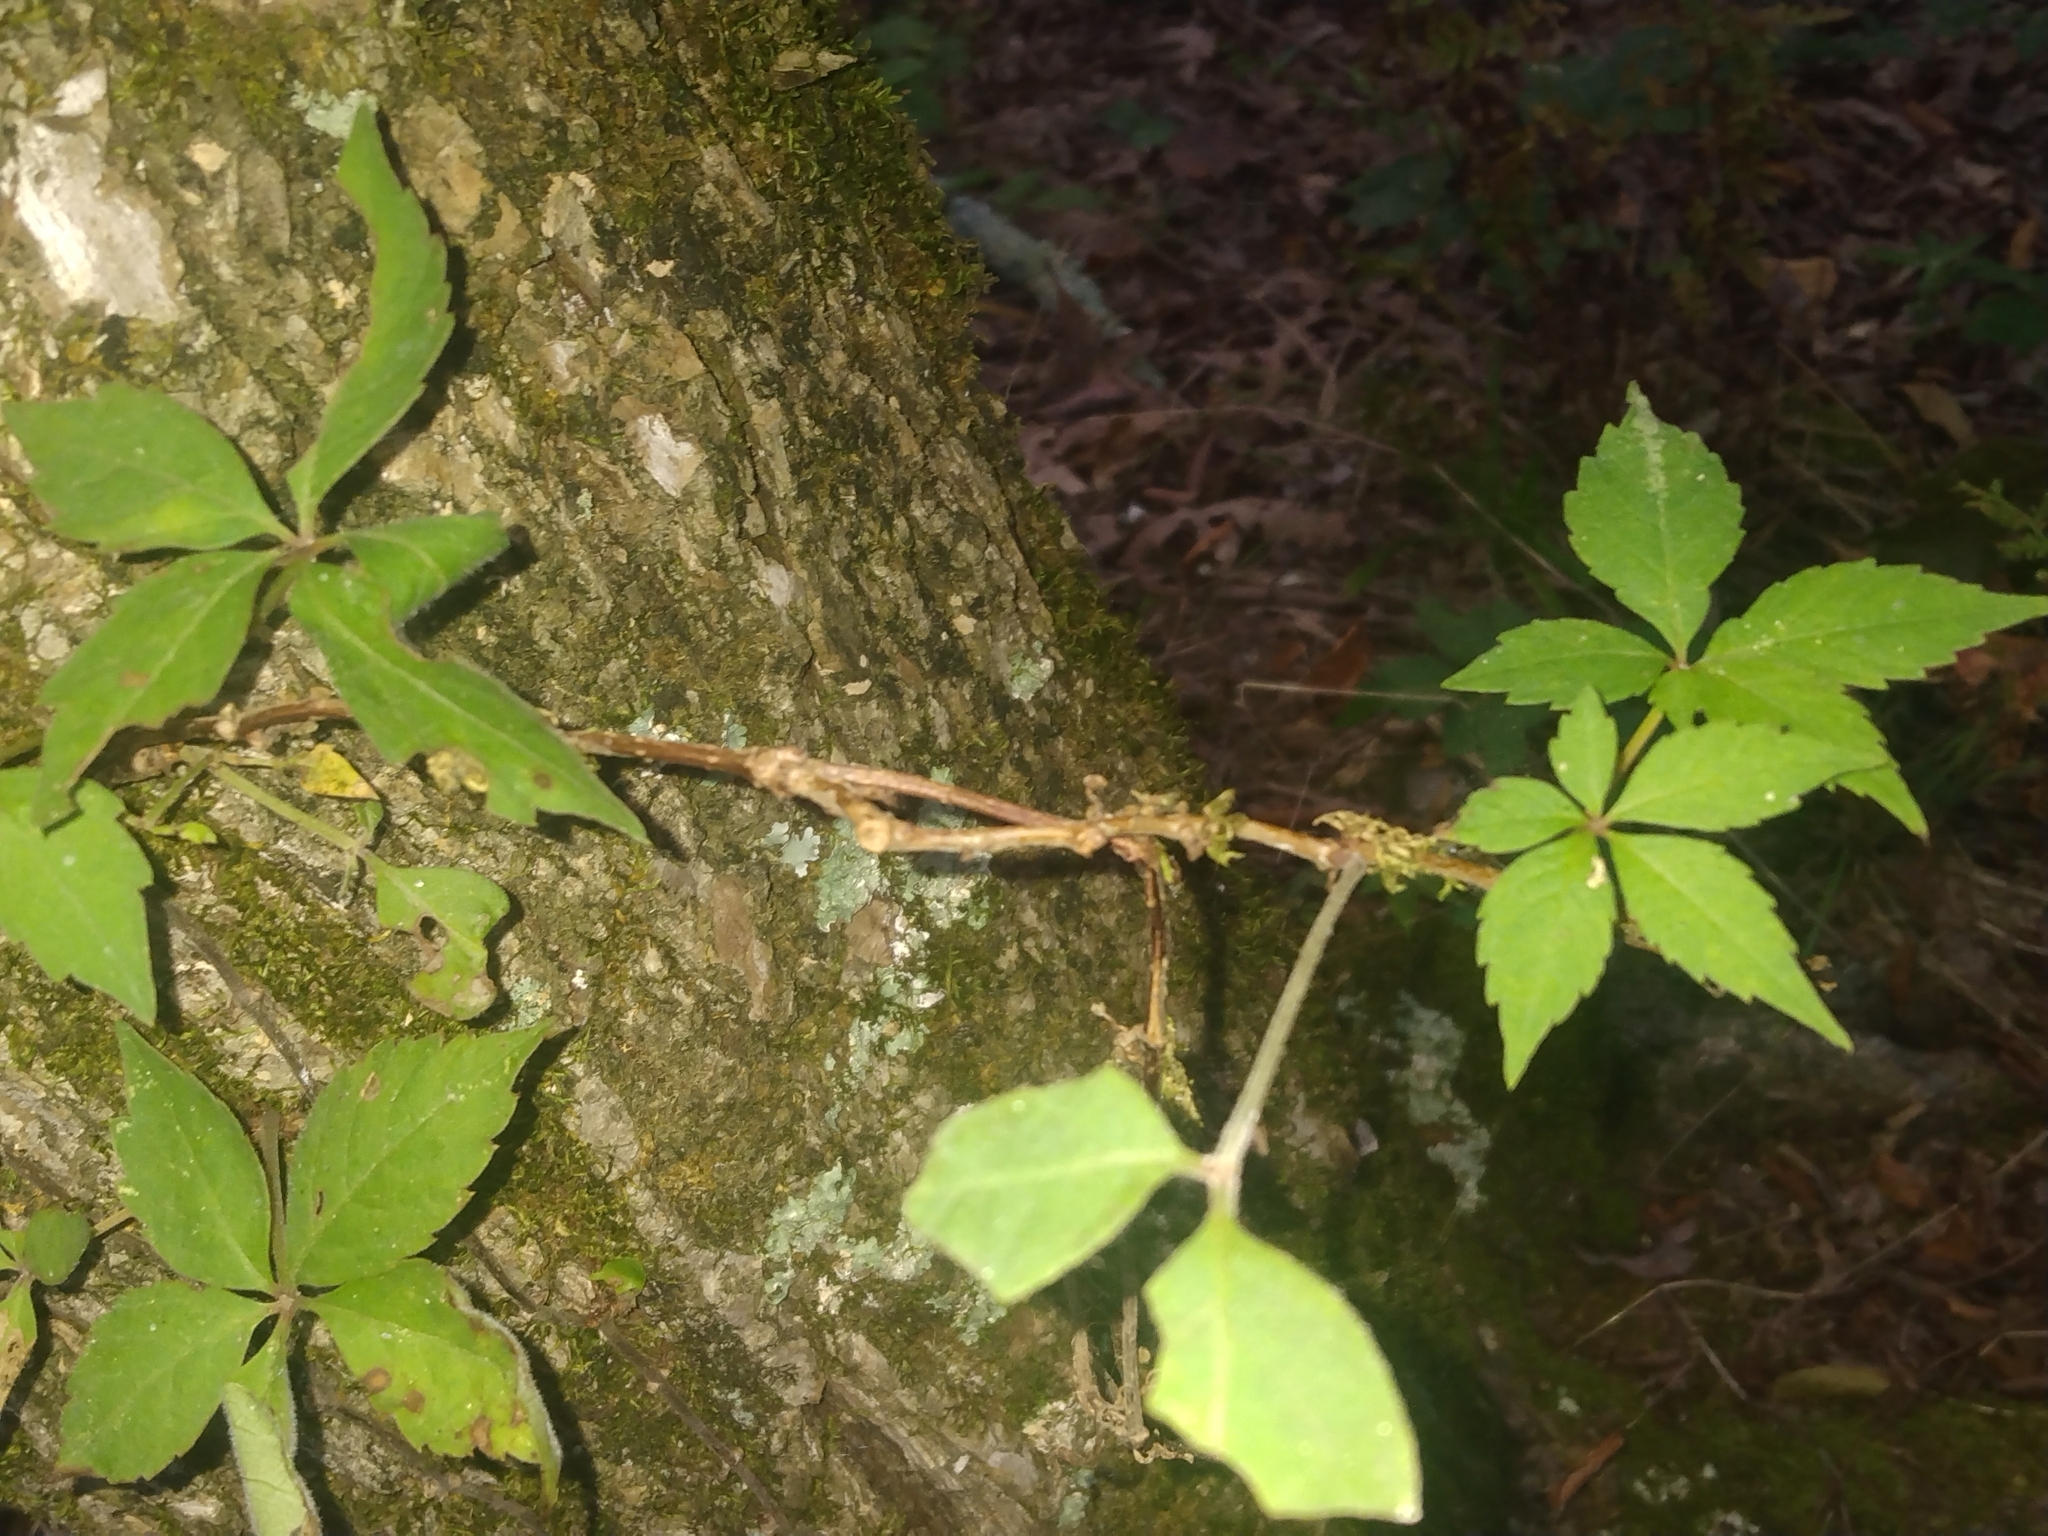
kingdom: Plantae
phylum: Tracheophyta
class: Magnoliopsida
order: Vitales
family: Vitaceae
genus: Parthenocissus
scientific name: Parthenocissus quinquefolia
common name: Virginia-creeper
